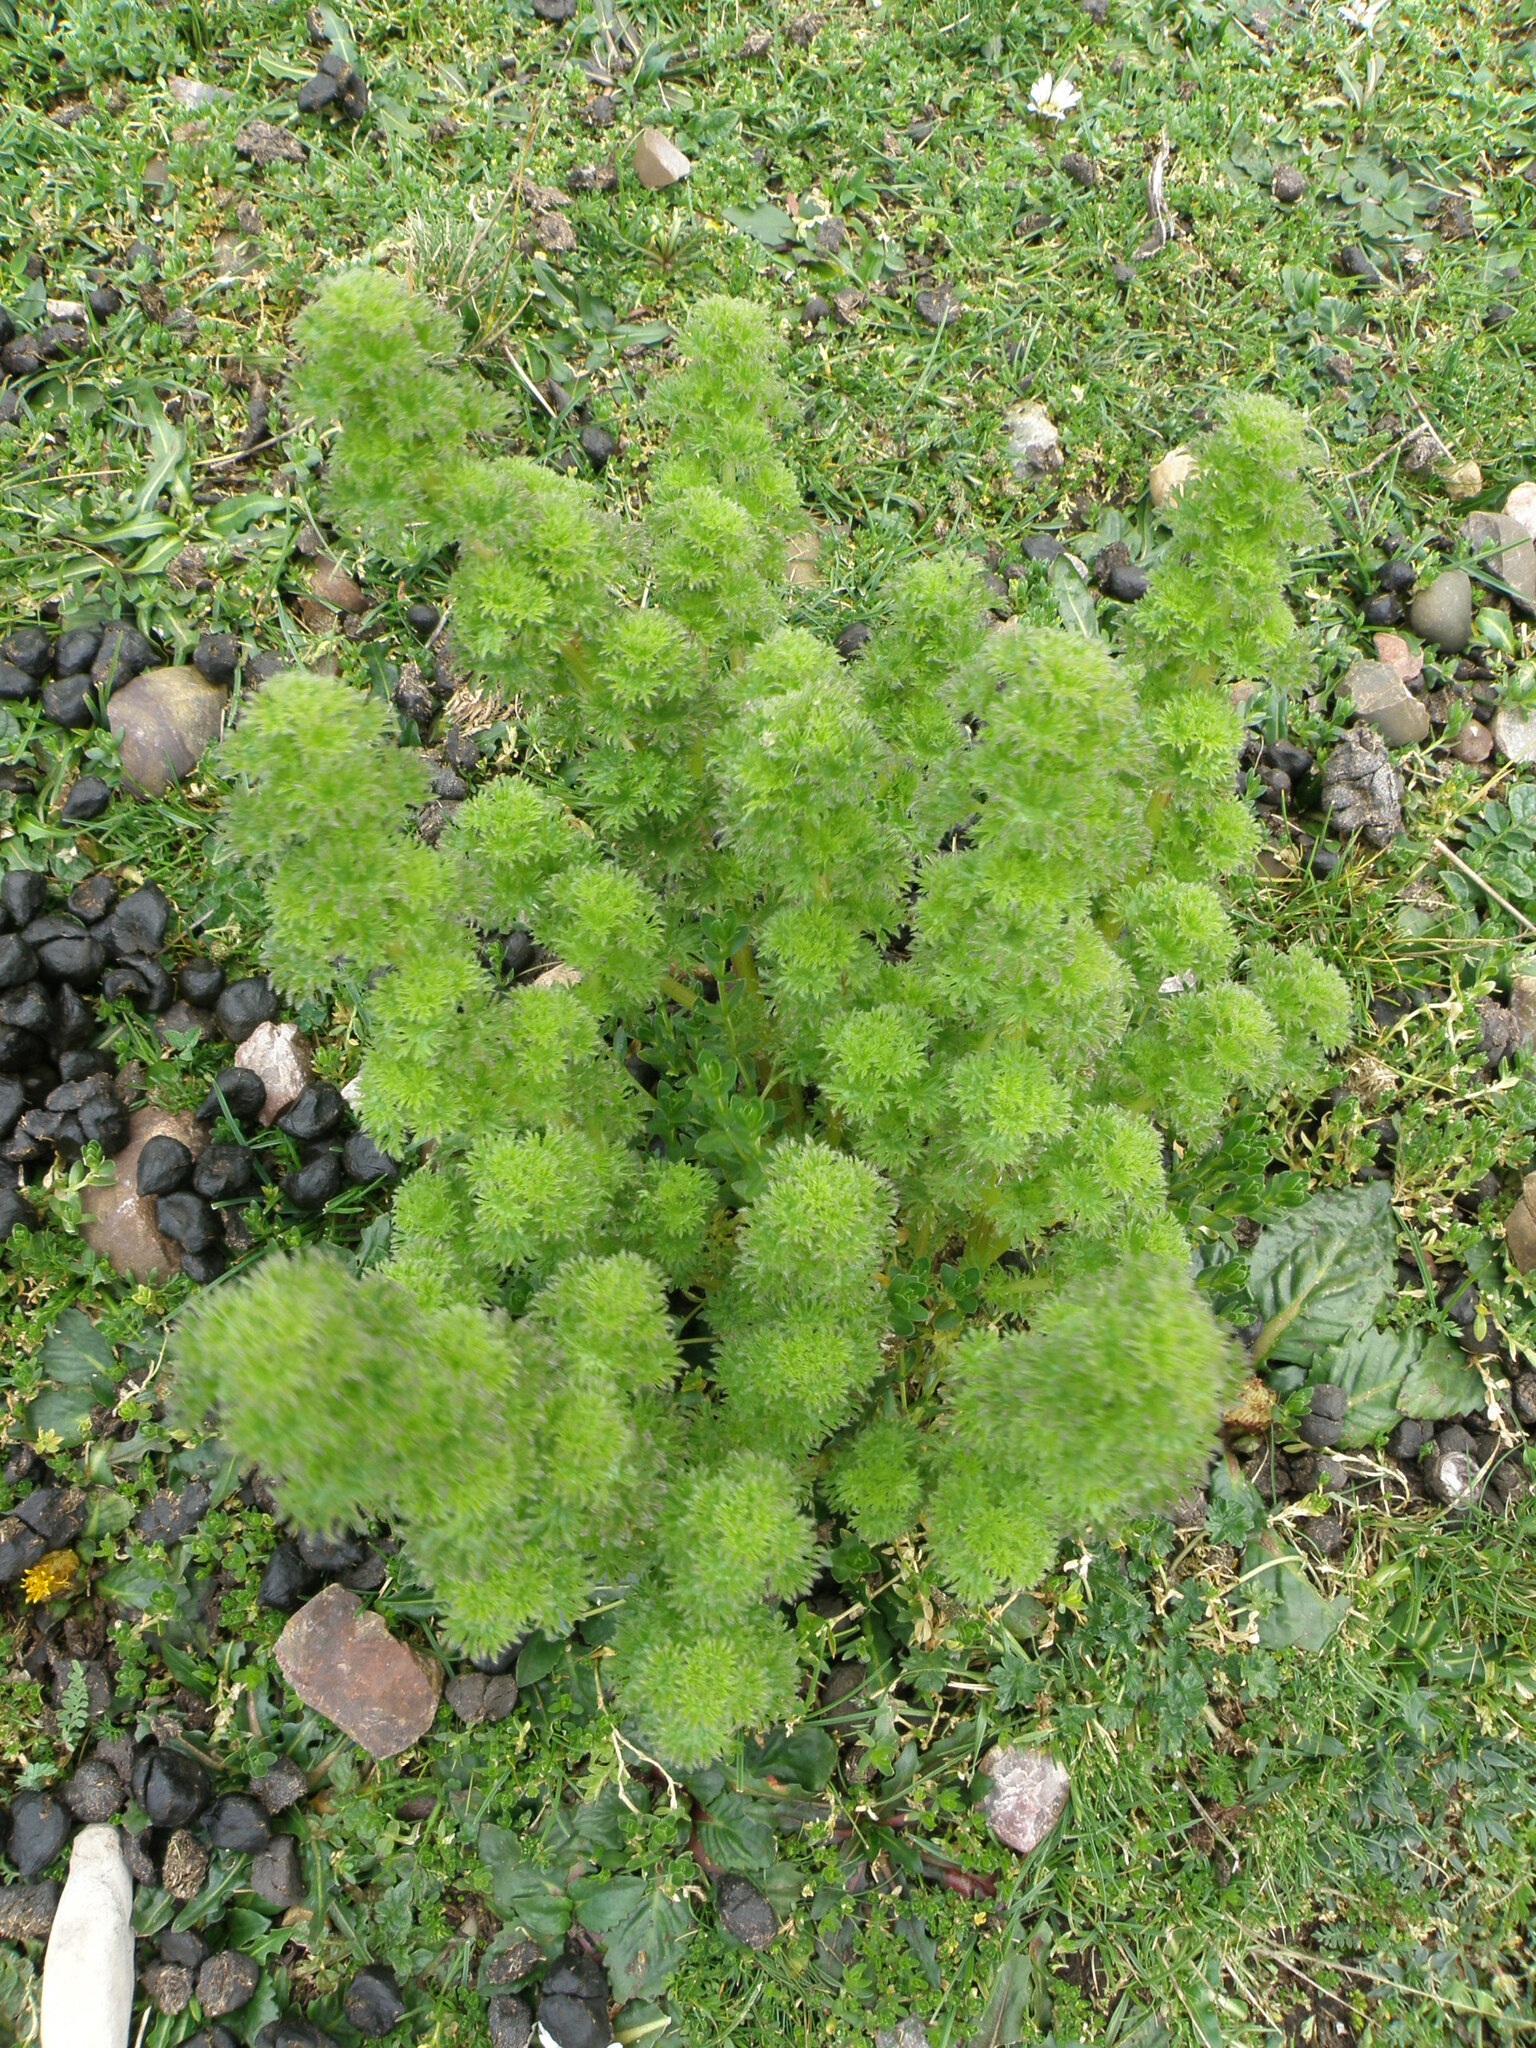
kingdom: Plantae
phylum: Tracheophyta
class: Magnoliopsida
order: Rosales
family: Urticaceae
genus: Urtica
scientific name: Urtica flabellata
